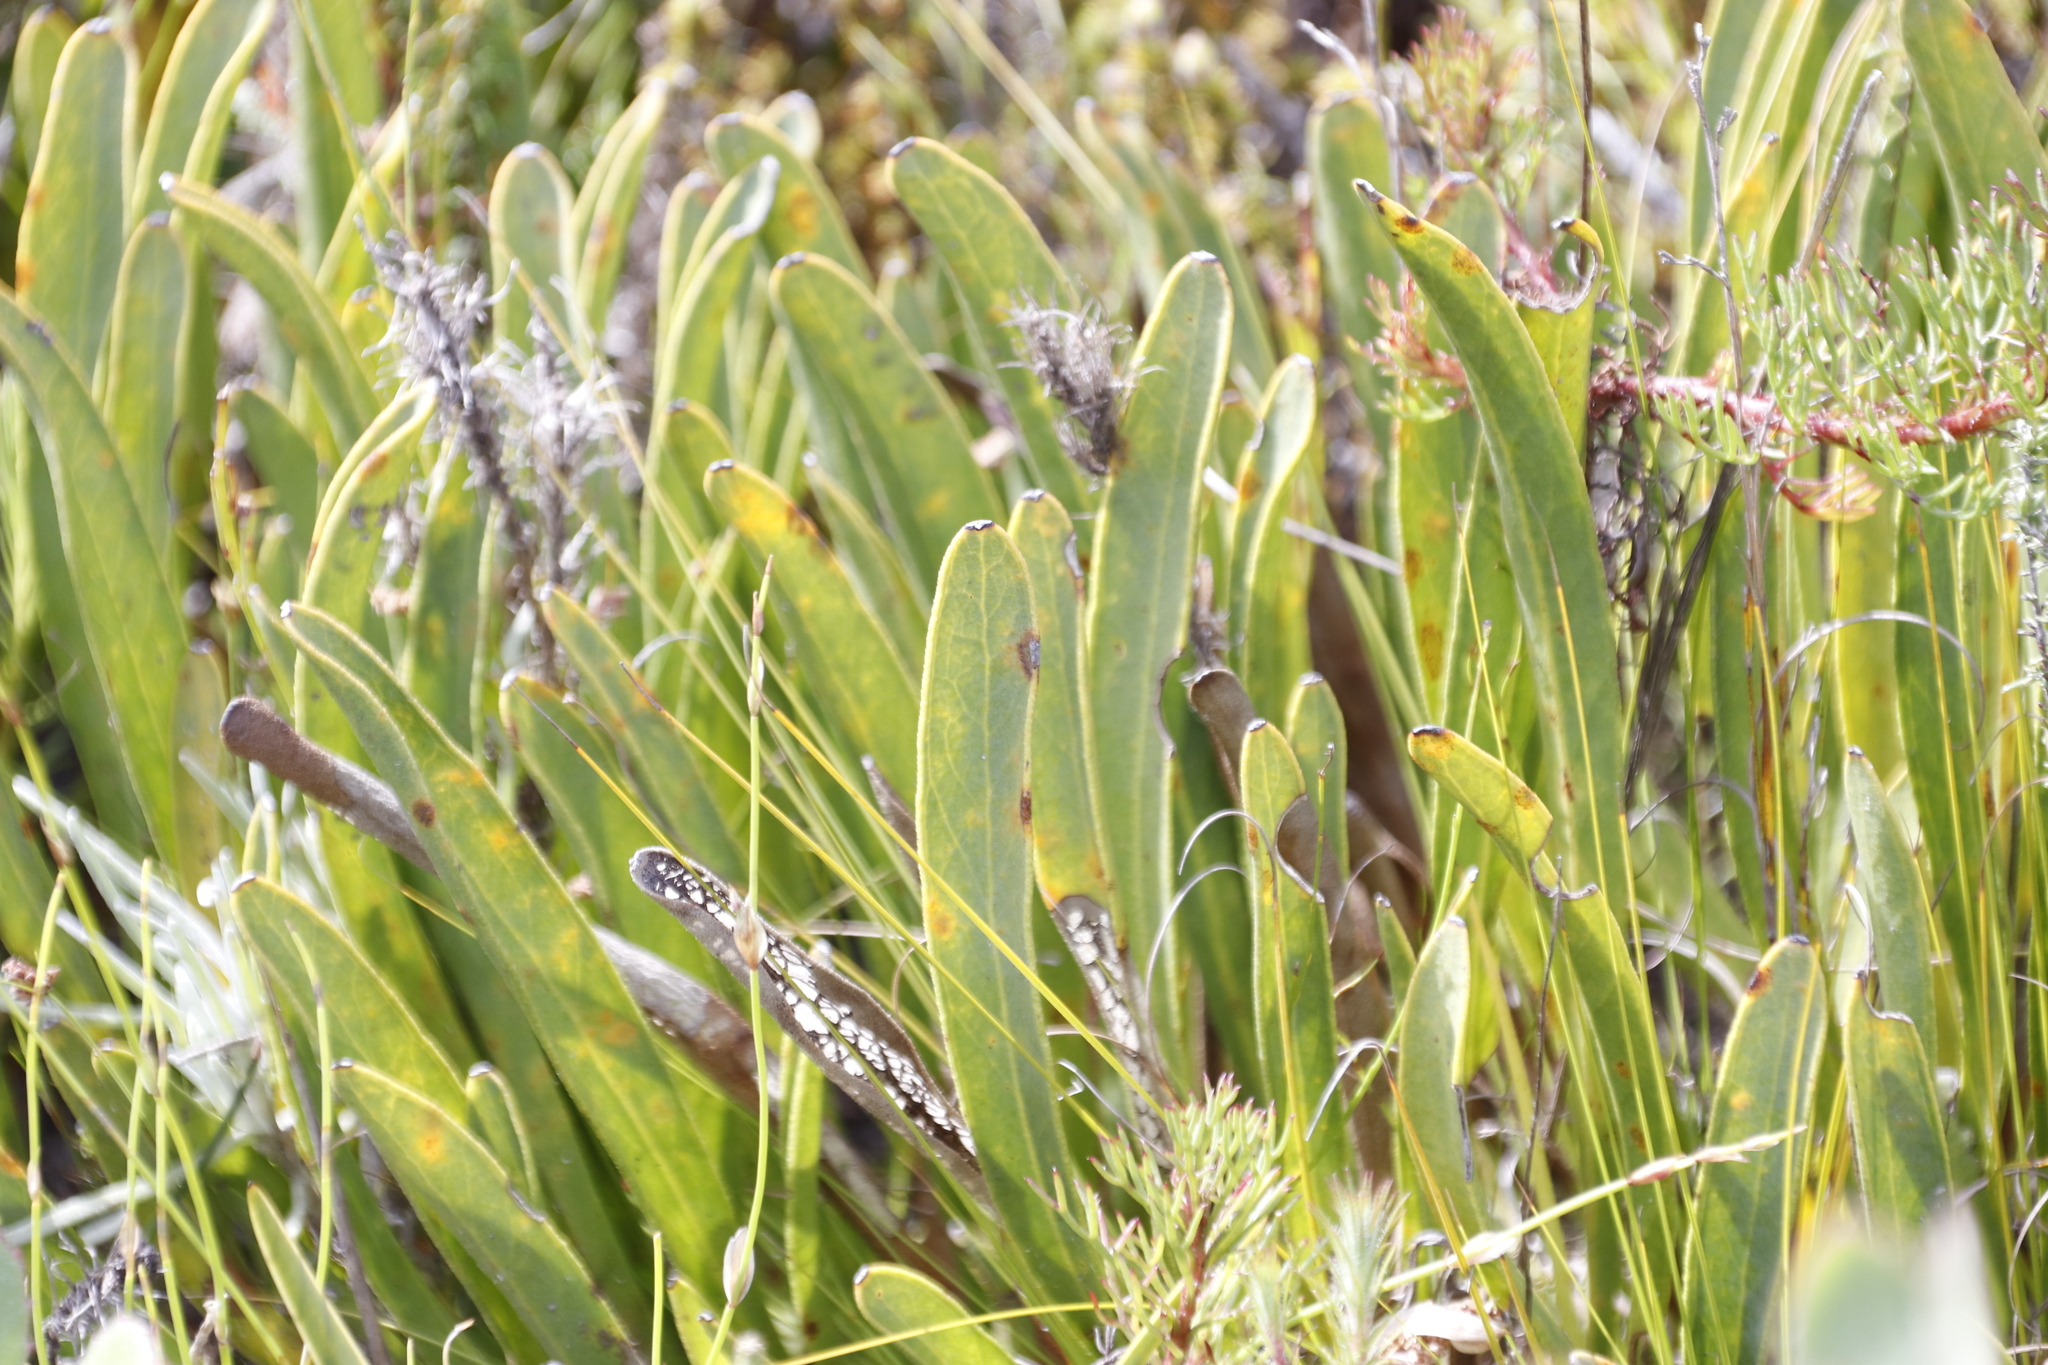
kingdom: Plantae
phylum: Tracheophyta
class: Magnoliopsida
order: Proteales
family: Proteaceae
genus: Protea
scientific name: Protea scabra
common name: Sandpaper-leaf sugarbush
